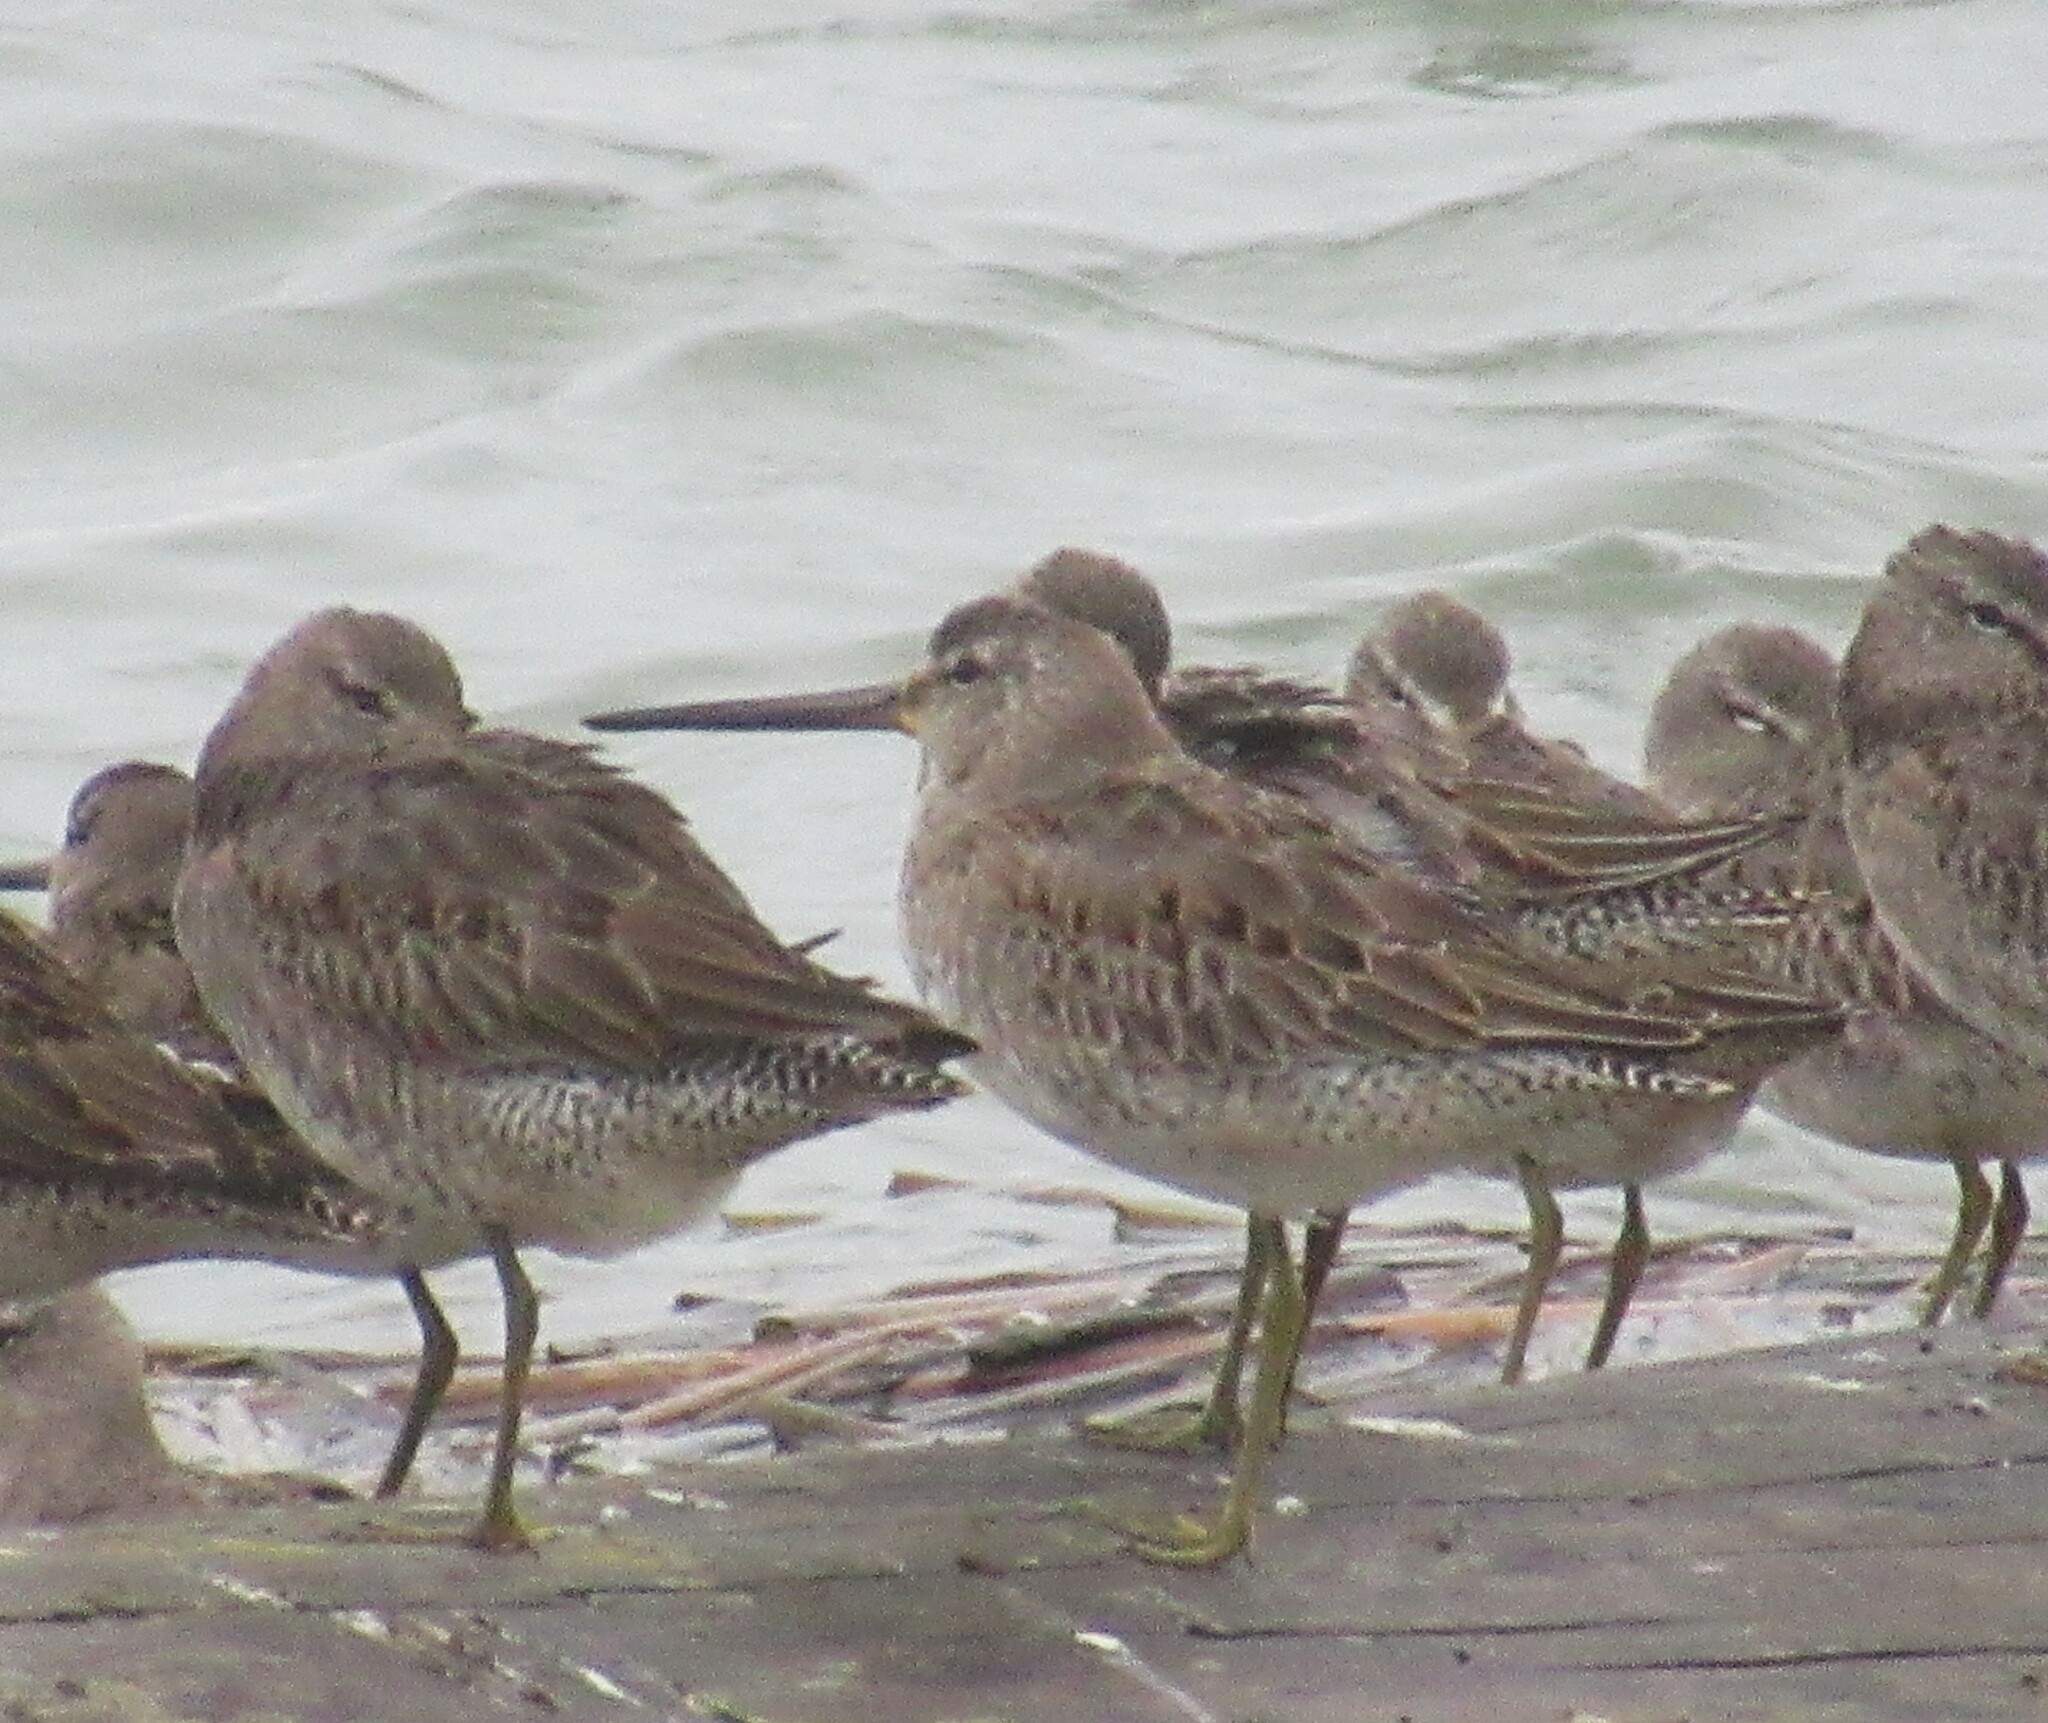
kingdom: Animalia
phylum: Chordata
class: Aves
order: Charadriiformes
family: Scolopacidae
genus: Limnodromus
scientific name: Limnodromus scolopaceus
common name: Long-billed dowitcher
